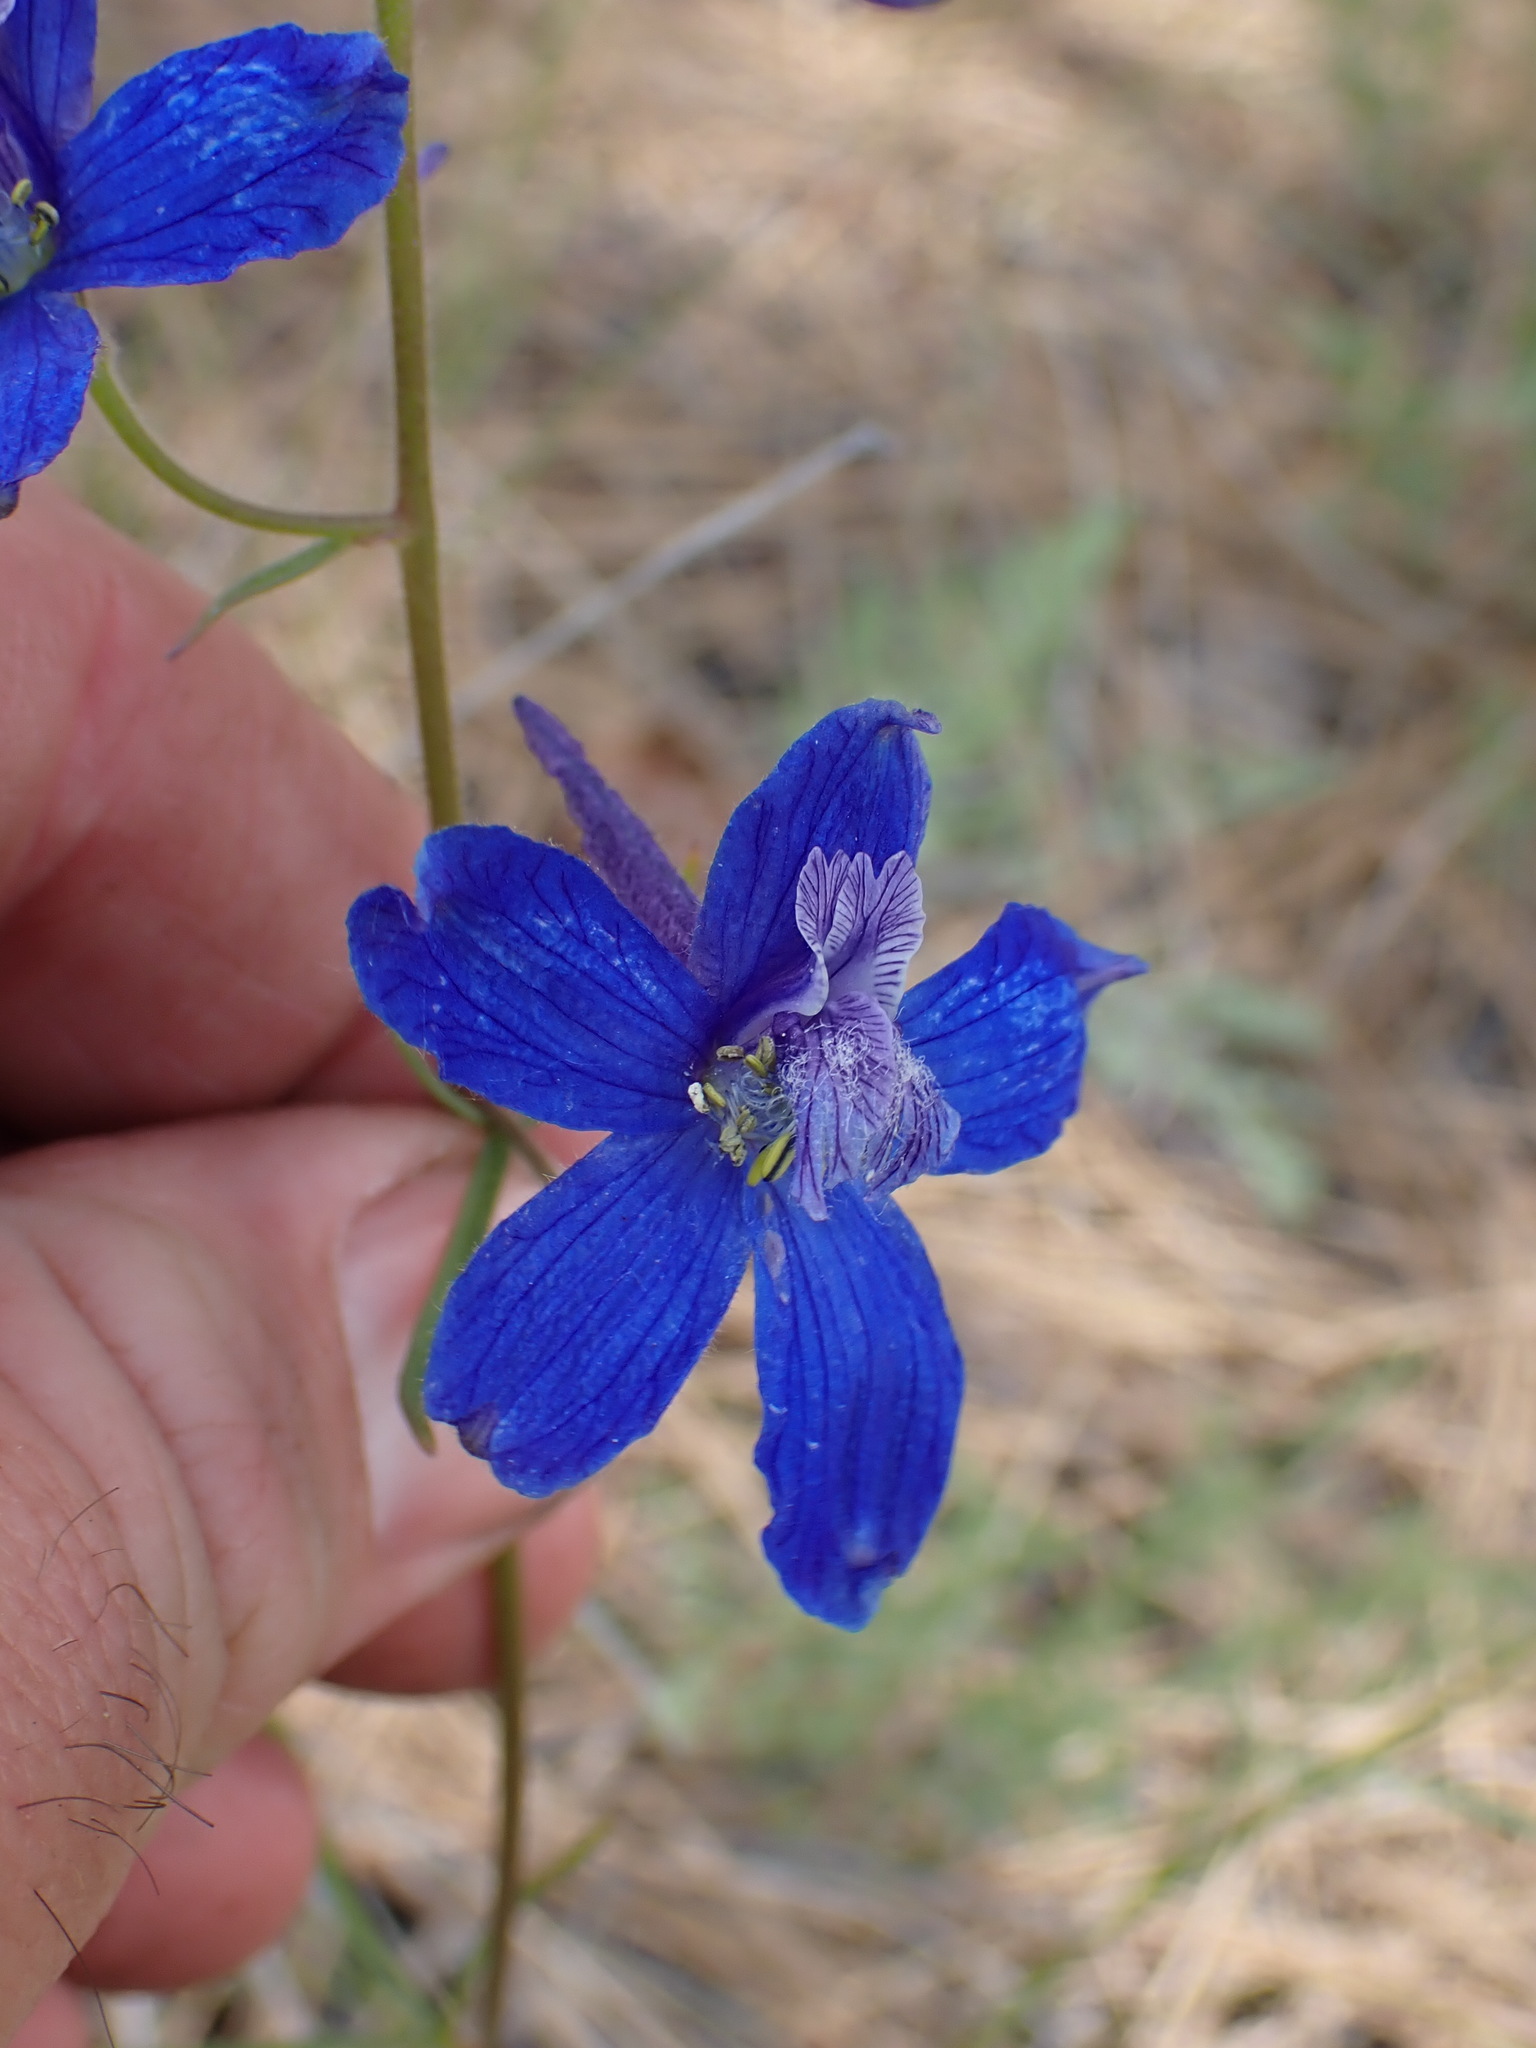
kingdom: Plantae
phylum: Tracheophyta
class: Magnoliopsida
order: Ranunculales
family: Ranunculaceae
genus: Delphinium
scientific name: Delphinium nuttallianum
